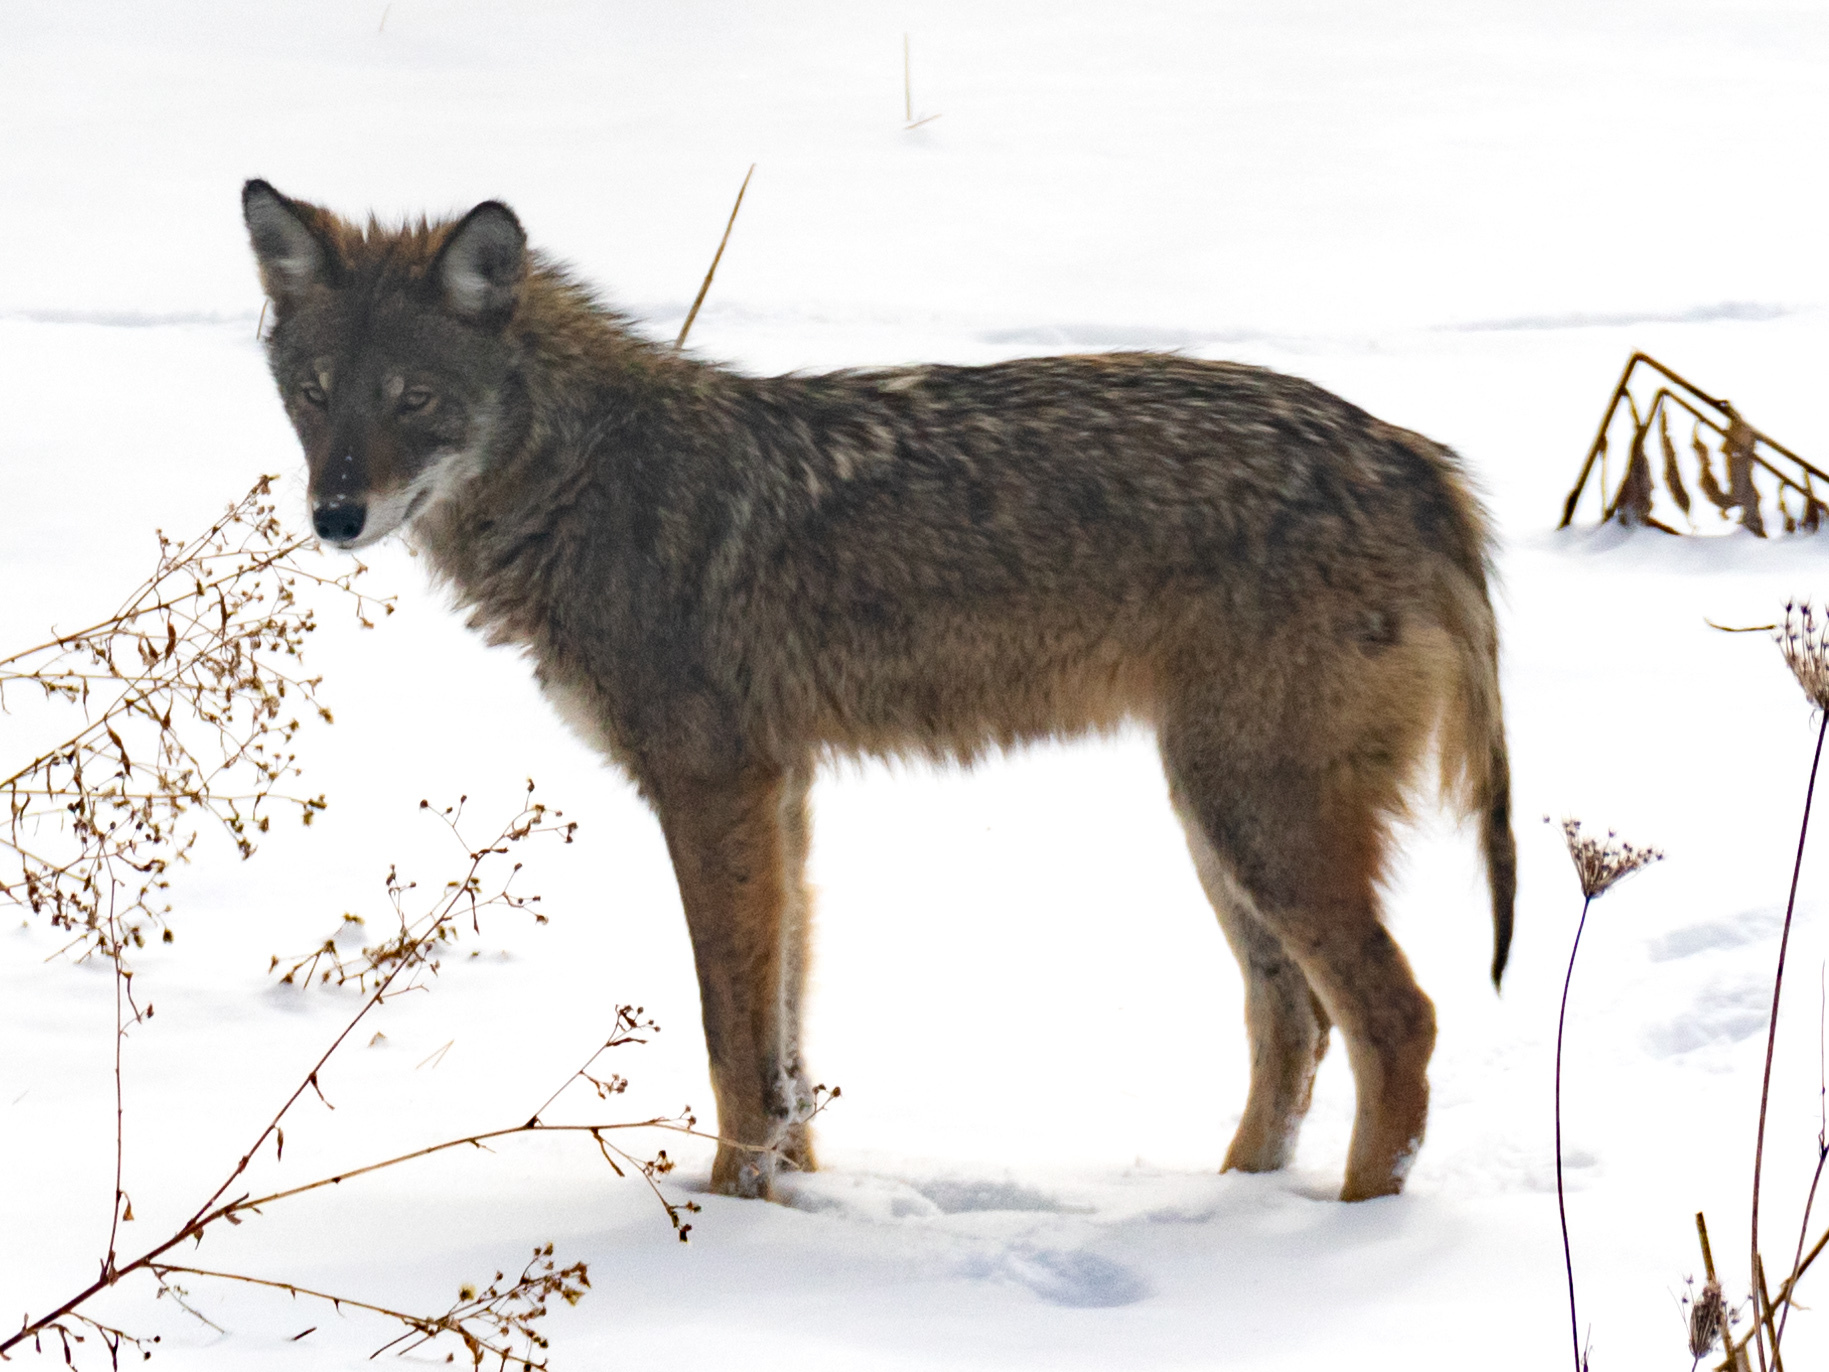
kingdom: Animalia
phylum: Chordata
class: Mammalia
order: Carnivora
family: Canidae
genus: Canis
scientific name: Canis latrans
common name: Coyote
